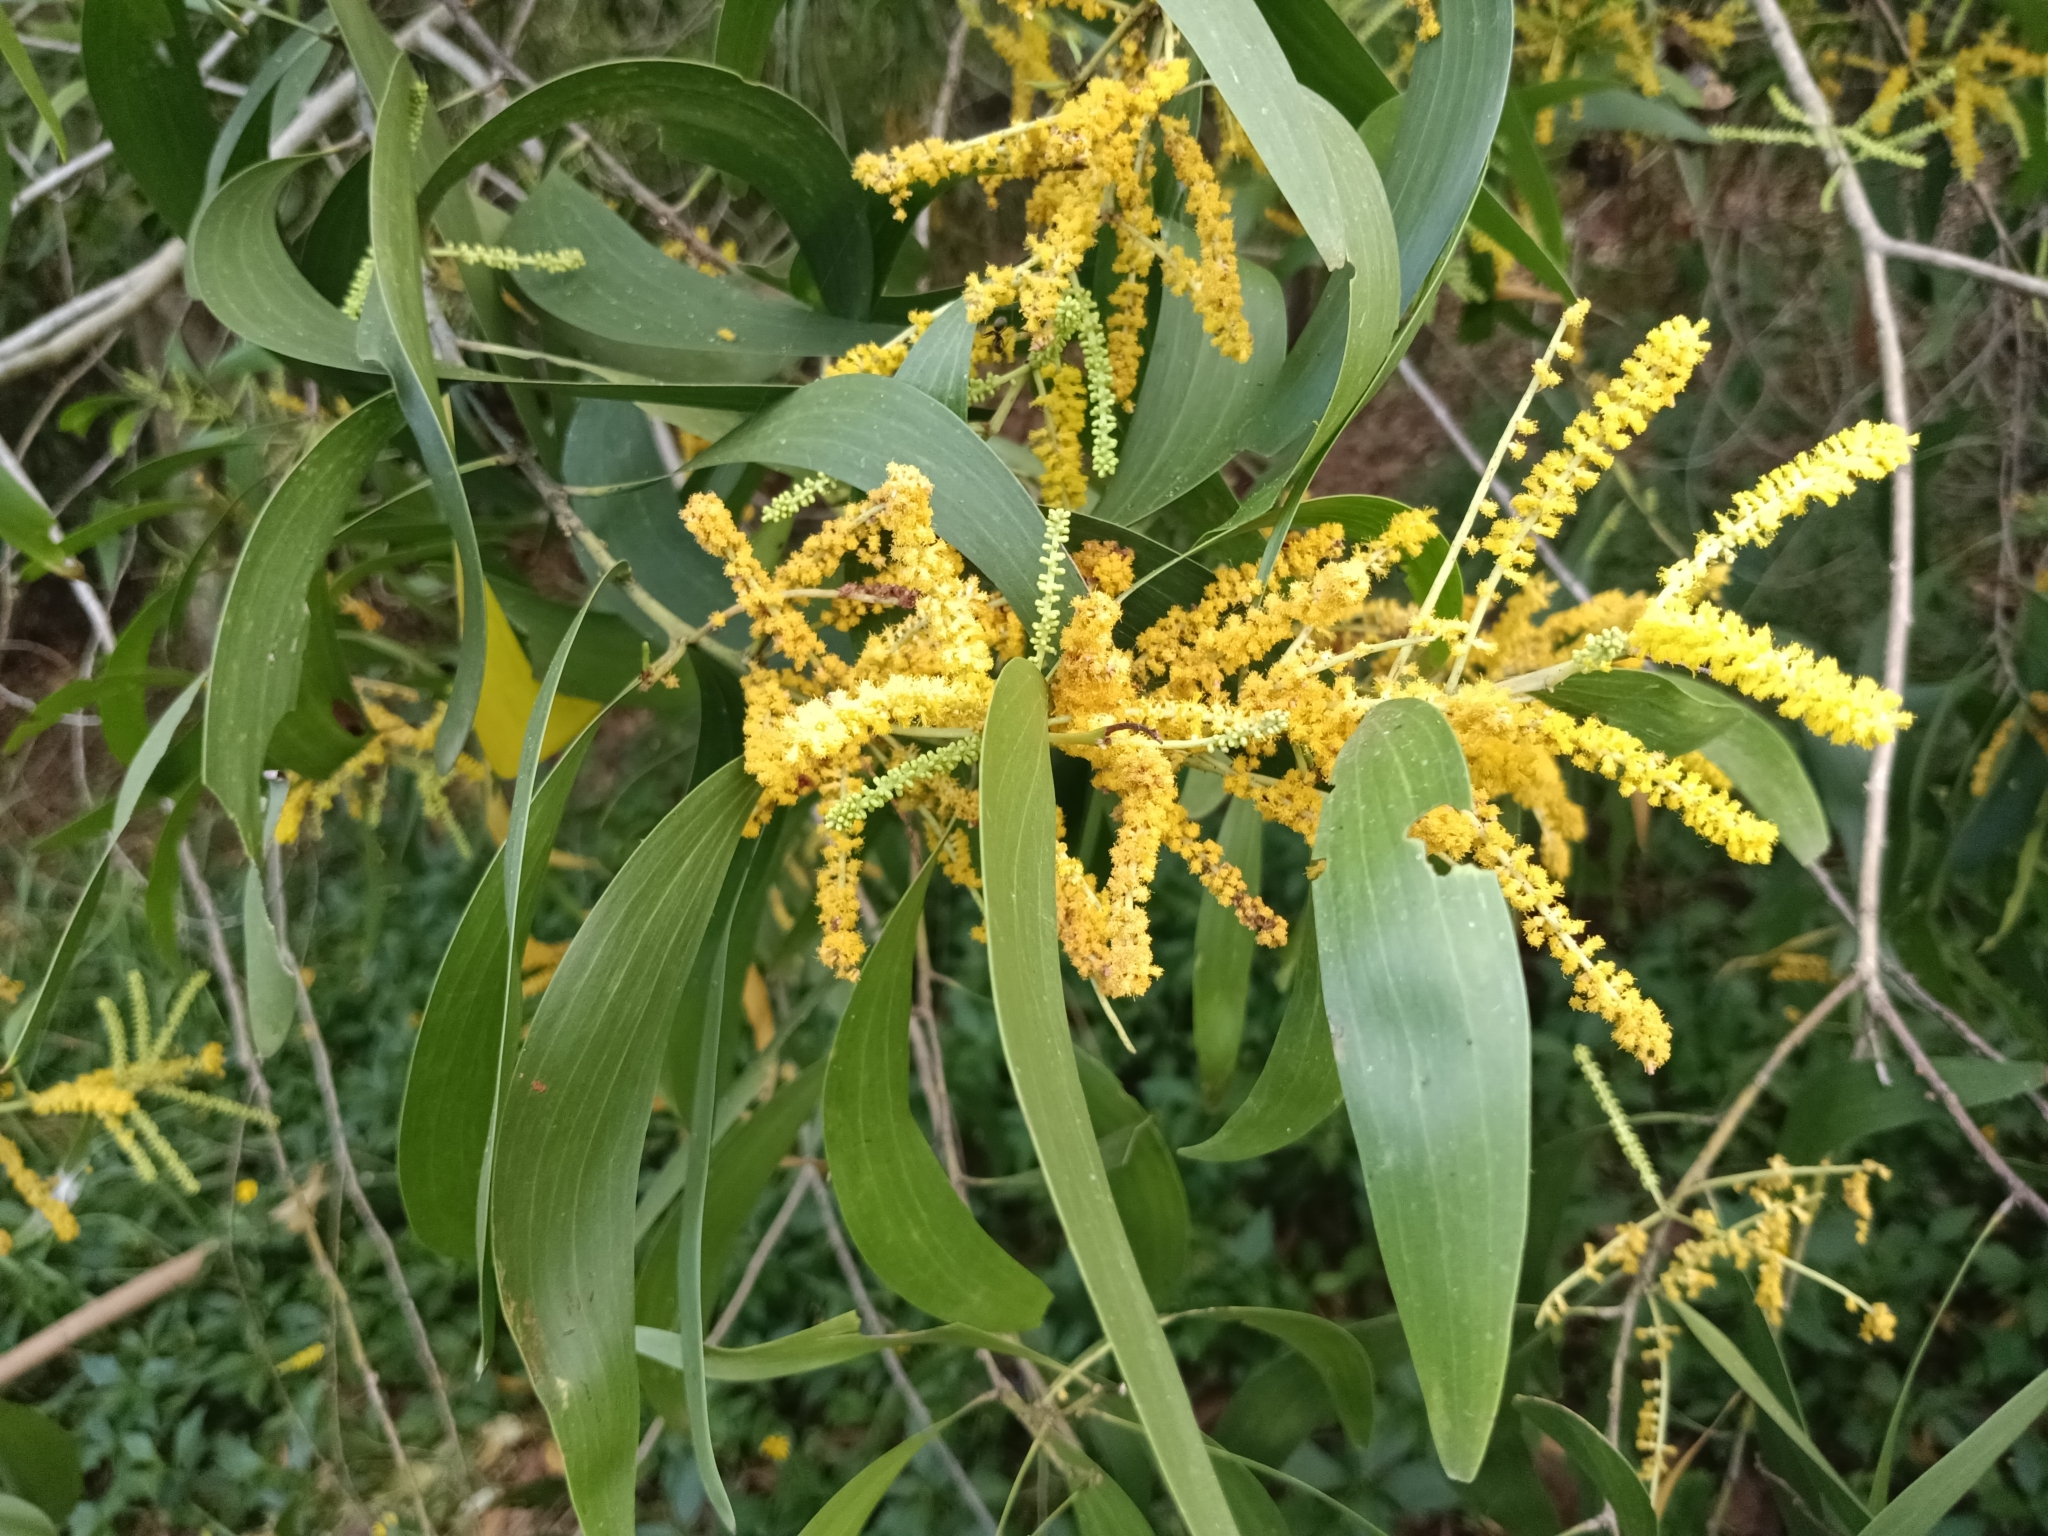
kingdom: Plantae
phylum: Tracheophyta
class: Magnoliopsida
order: Fabales
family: Fabaceae
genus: Acacia
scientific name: Acacia auriculiformis
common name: Earleaf acacia
